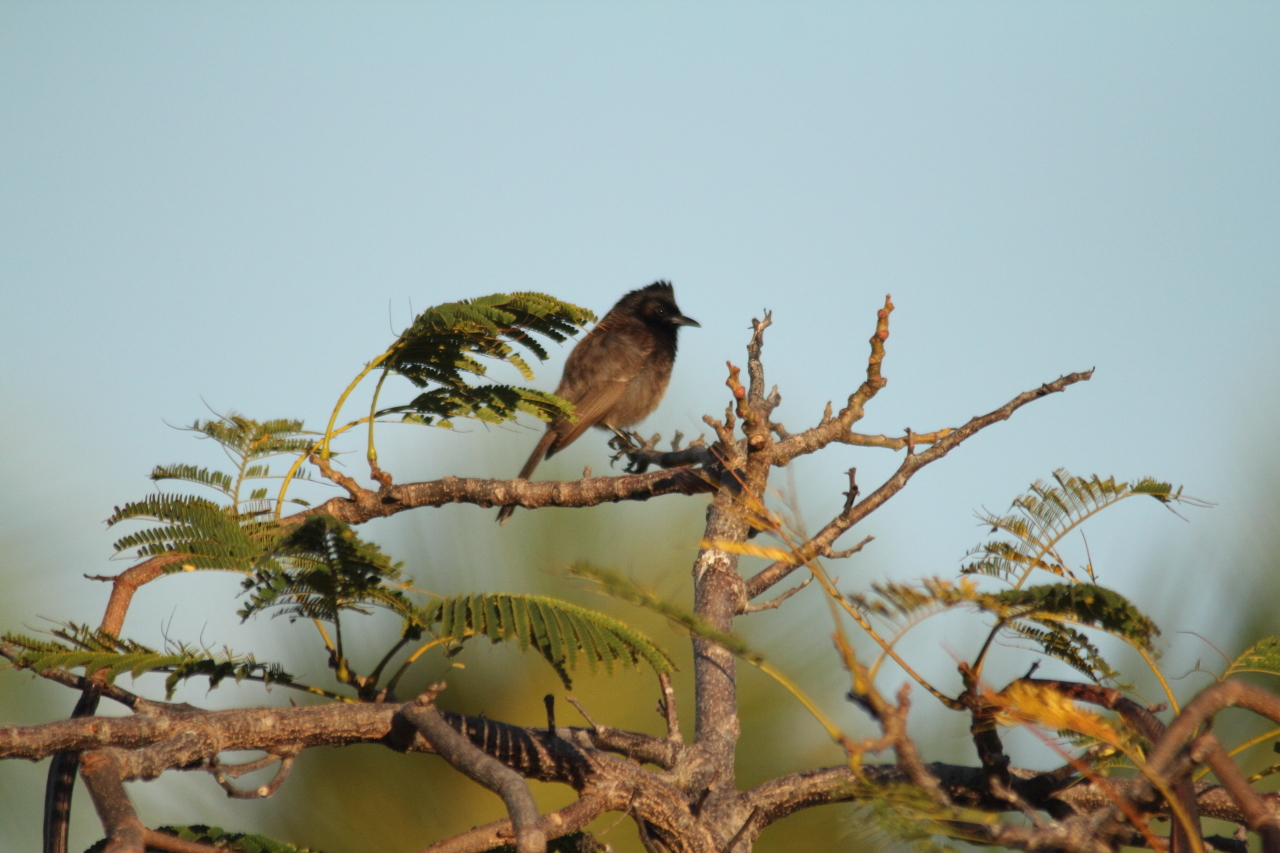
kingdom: Animalia
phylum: Chordata
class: Aves
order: Passeriformes
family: Pycnonotidae
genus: Pycnonotus
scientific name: Pycnonotus cafer
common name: Red-vented bulbul
